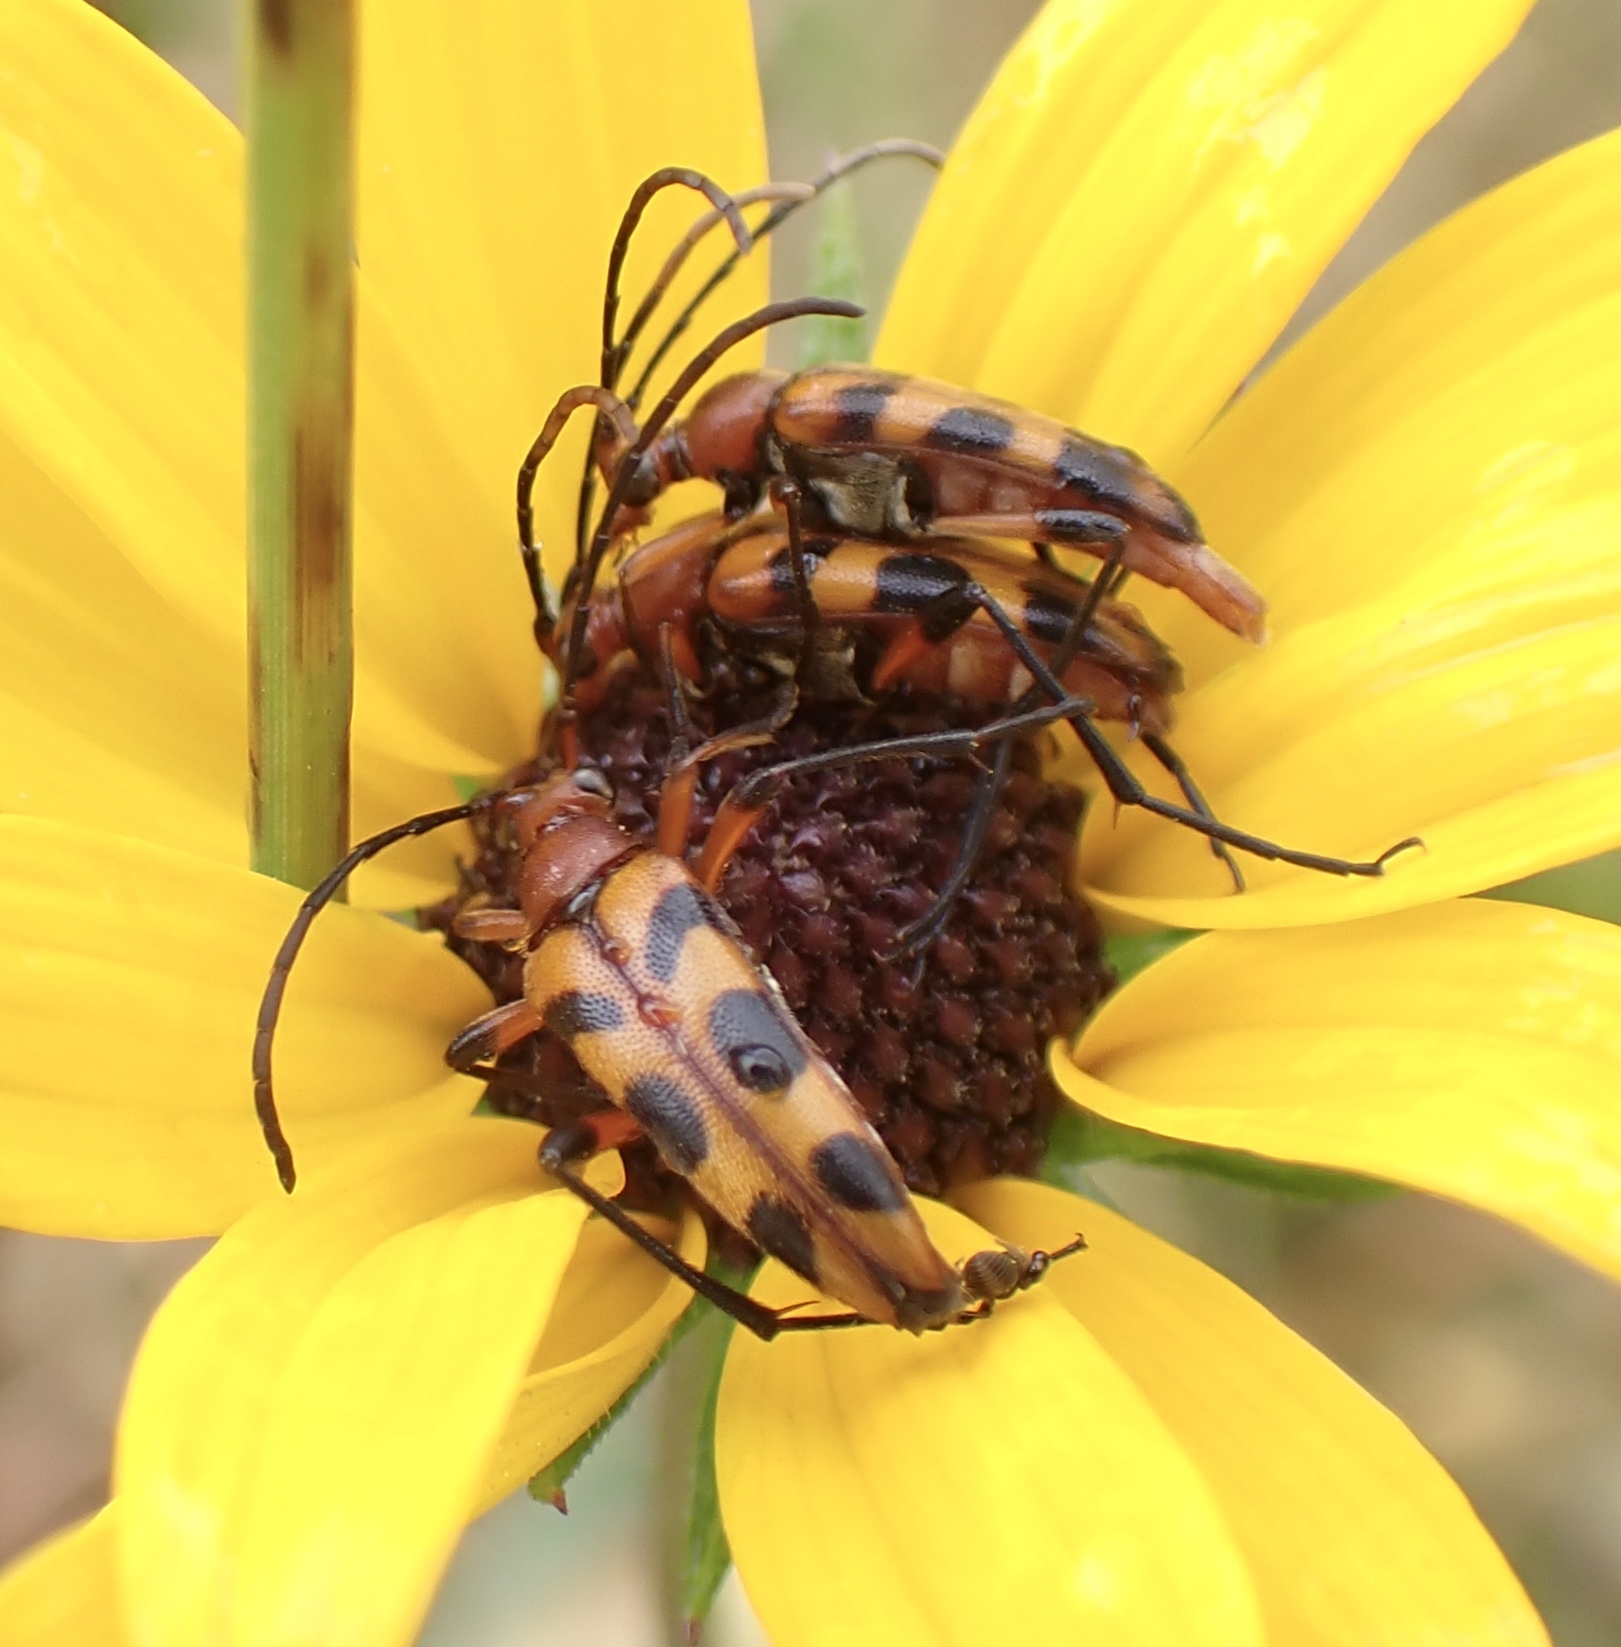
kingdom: Animalia
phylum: Arthropoda
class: Insecta
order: Coleoptera
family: Cerambycidae
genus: Strangalia
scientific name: Strangalia sexnotata
